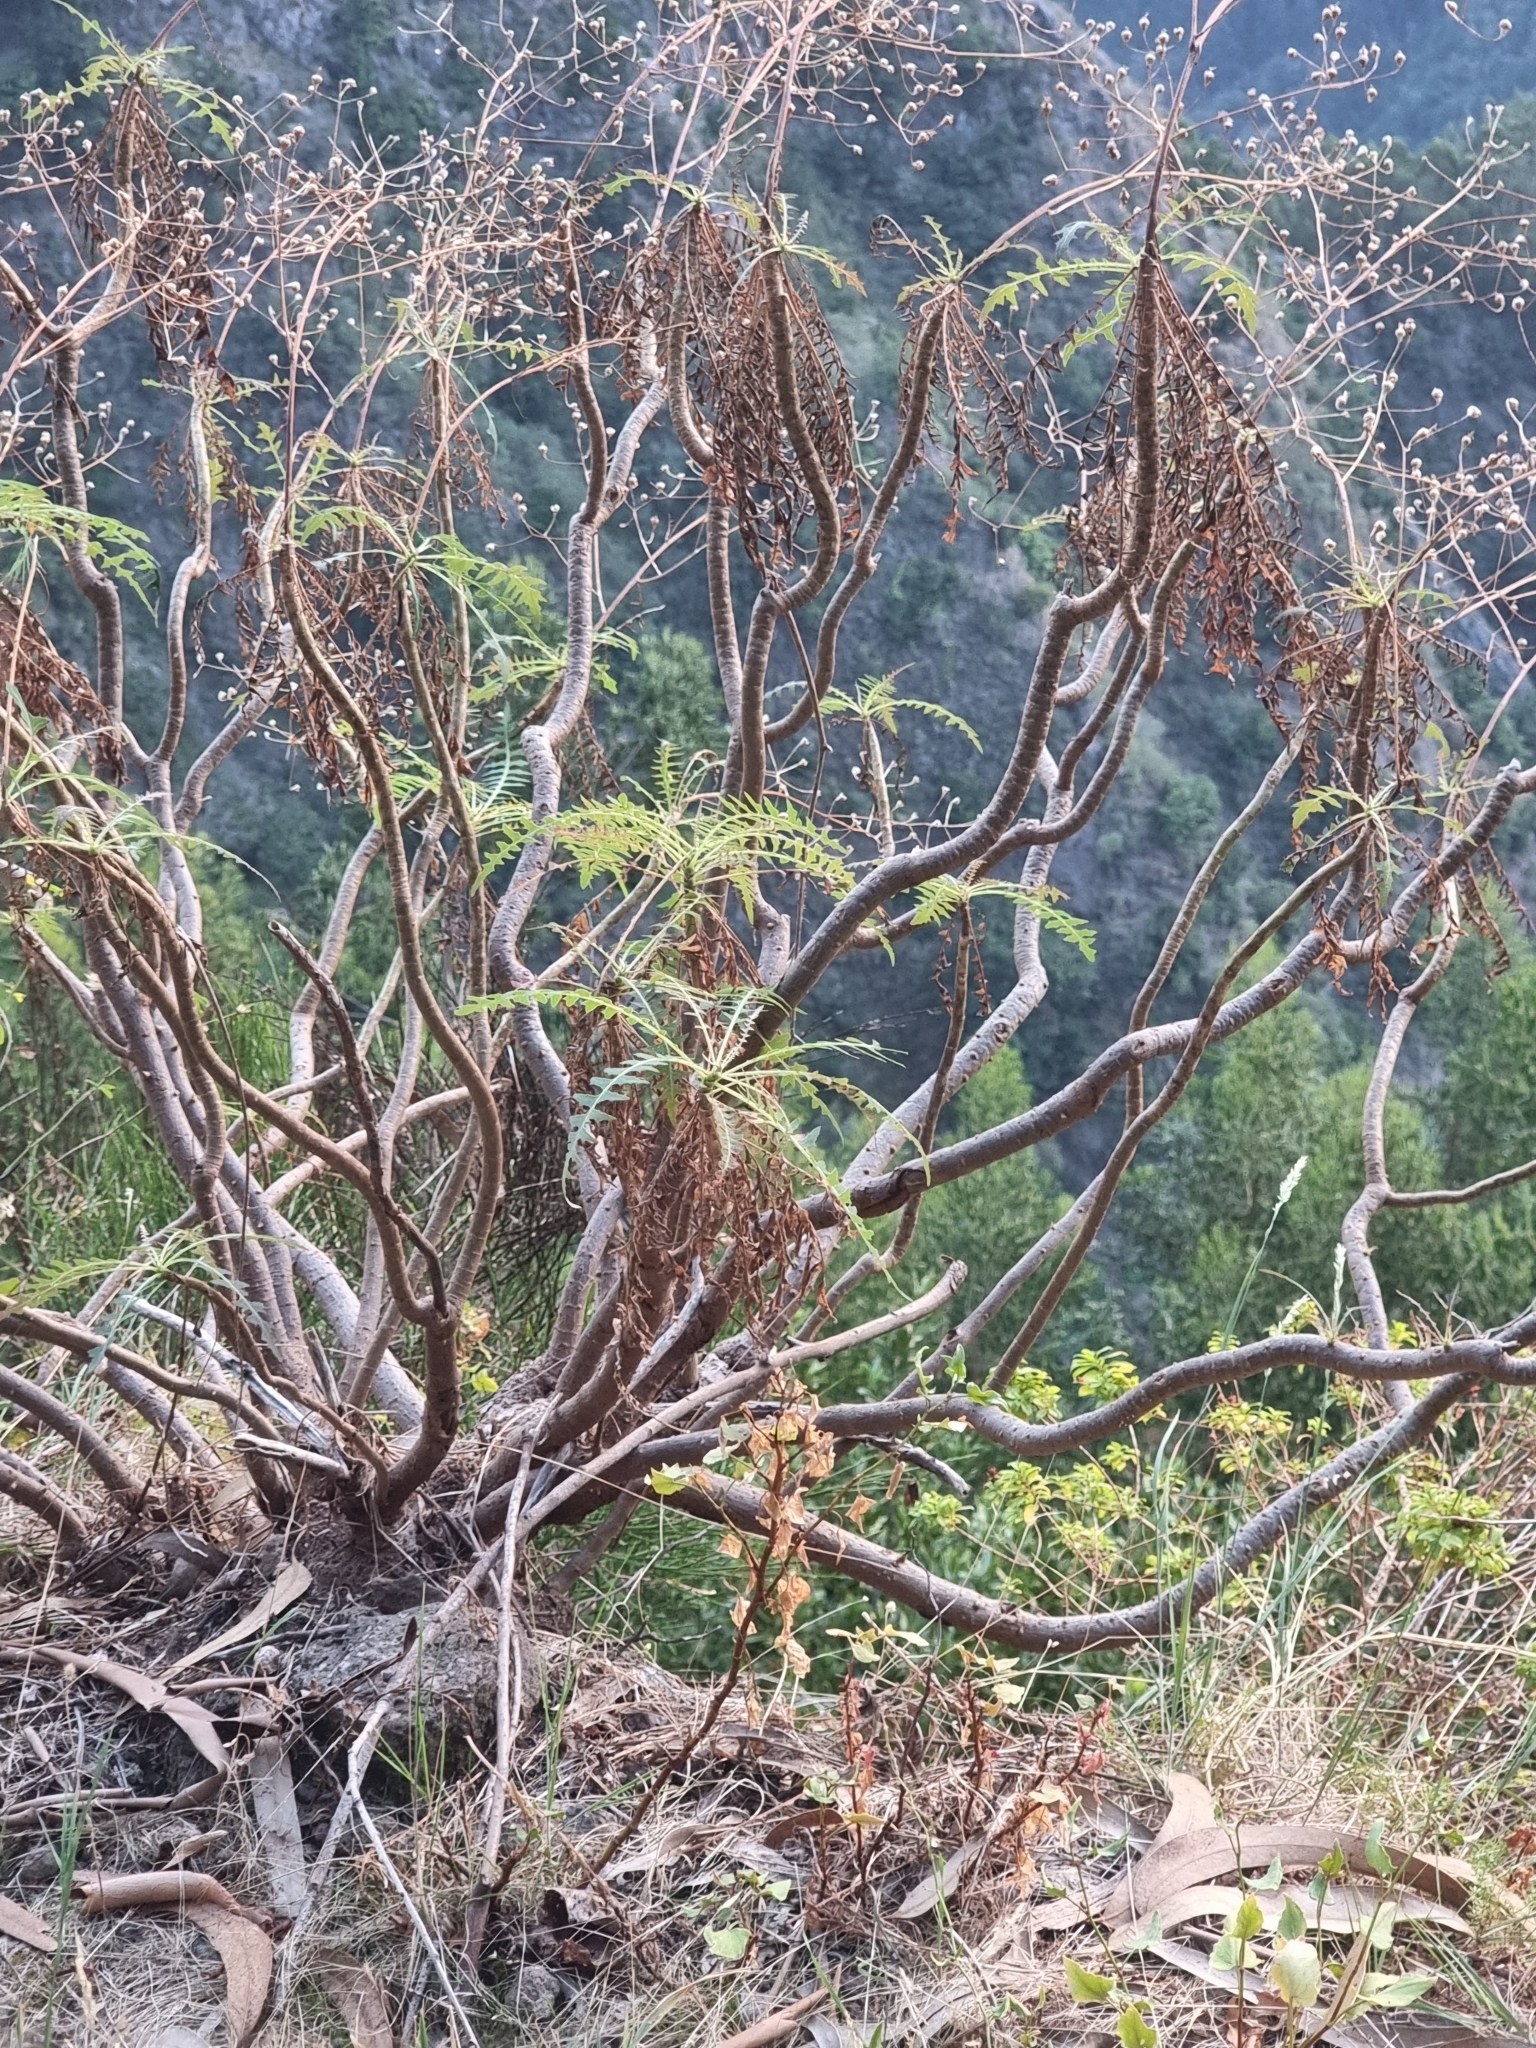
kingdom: Plantae
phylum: Tracheophyta
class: Magnoliopsida
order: Asterales
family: Asteraceae
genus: Sonchus
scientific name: Sonchus pinnatus
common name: Wing-leaved sow-thistle
